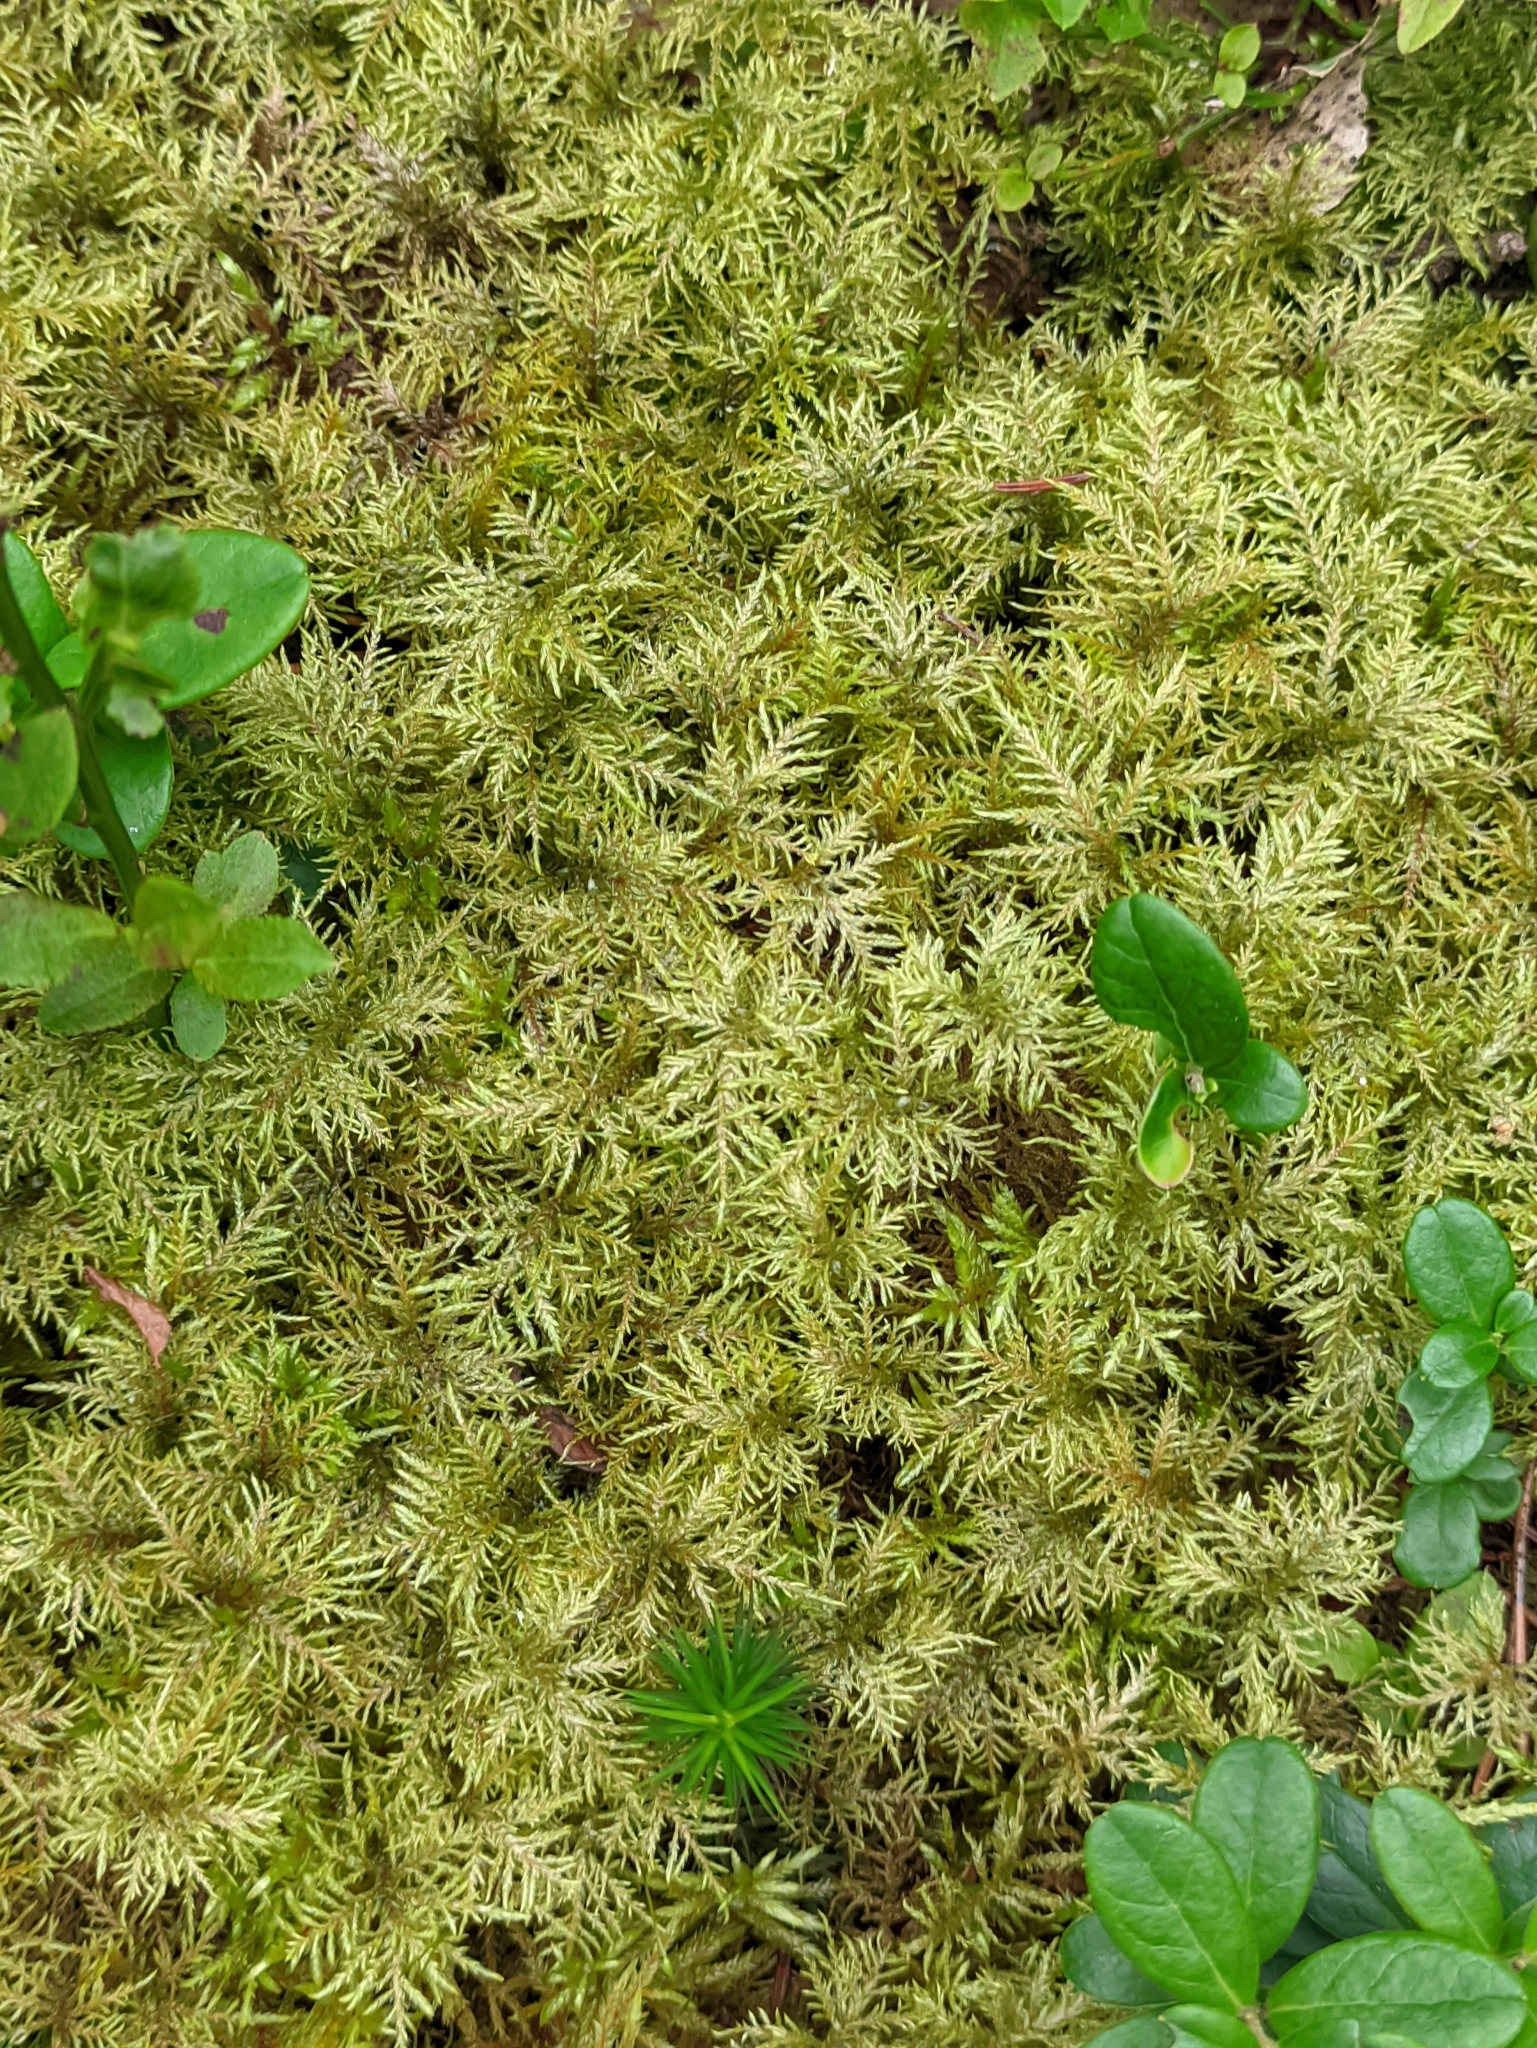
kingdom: Plantae
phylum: Bryophyta
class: Bryopsida
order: Hypnales
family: Hylocomiaceae
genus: Hylocomium
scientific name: Hylocomium splendens
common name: Stairstep moss
